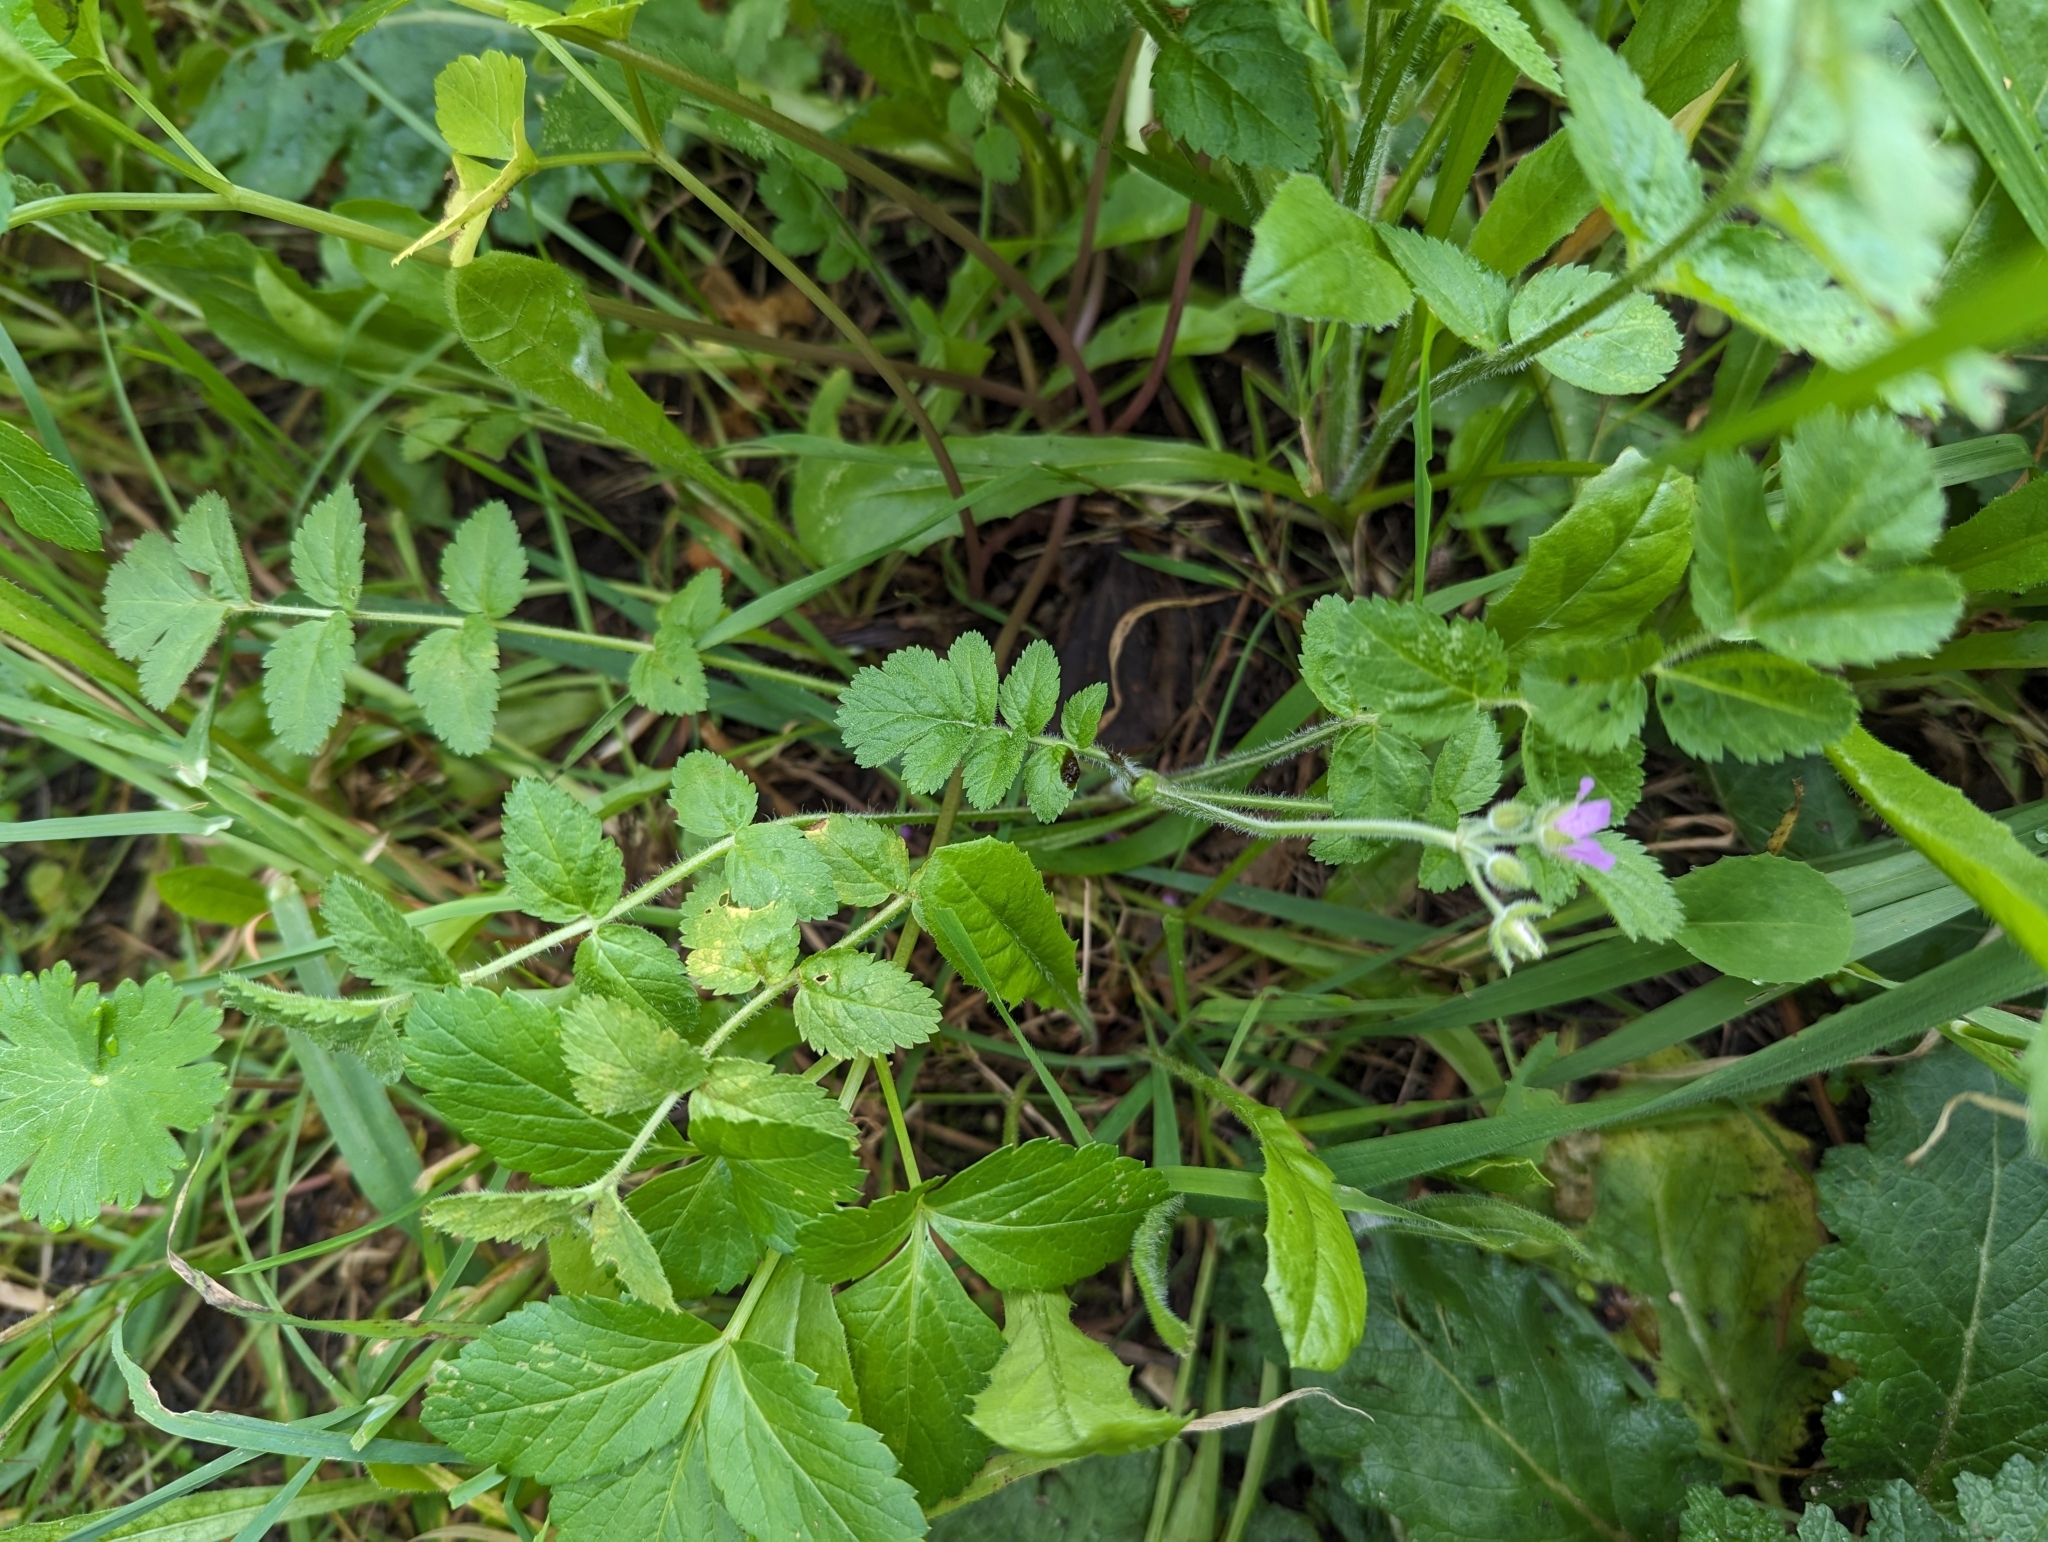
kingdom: Plantae
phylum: Tracheophyta
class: Magnoliopsida
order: Geraniales
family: Geraniaceae
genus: Erodium
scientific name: Erodium moschatum
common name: Musk stork's-bill
